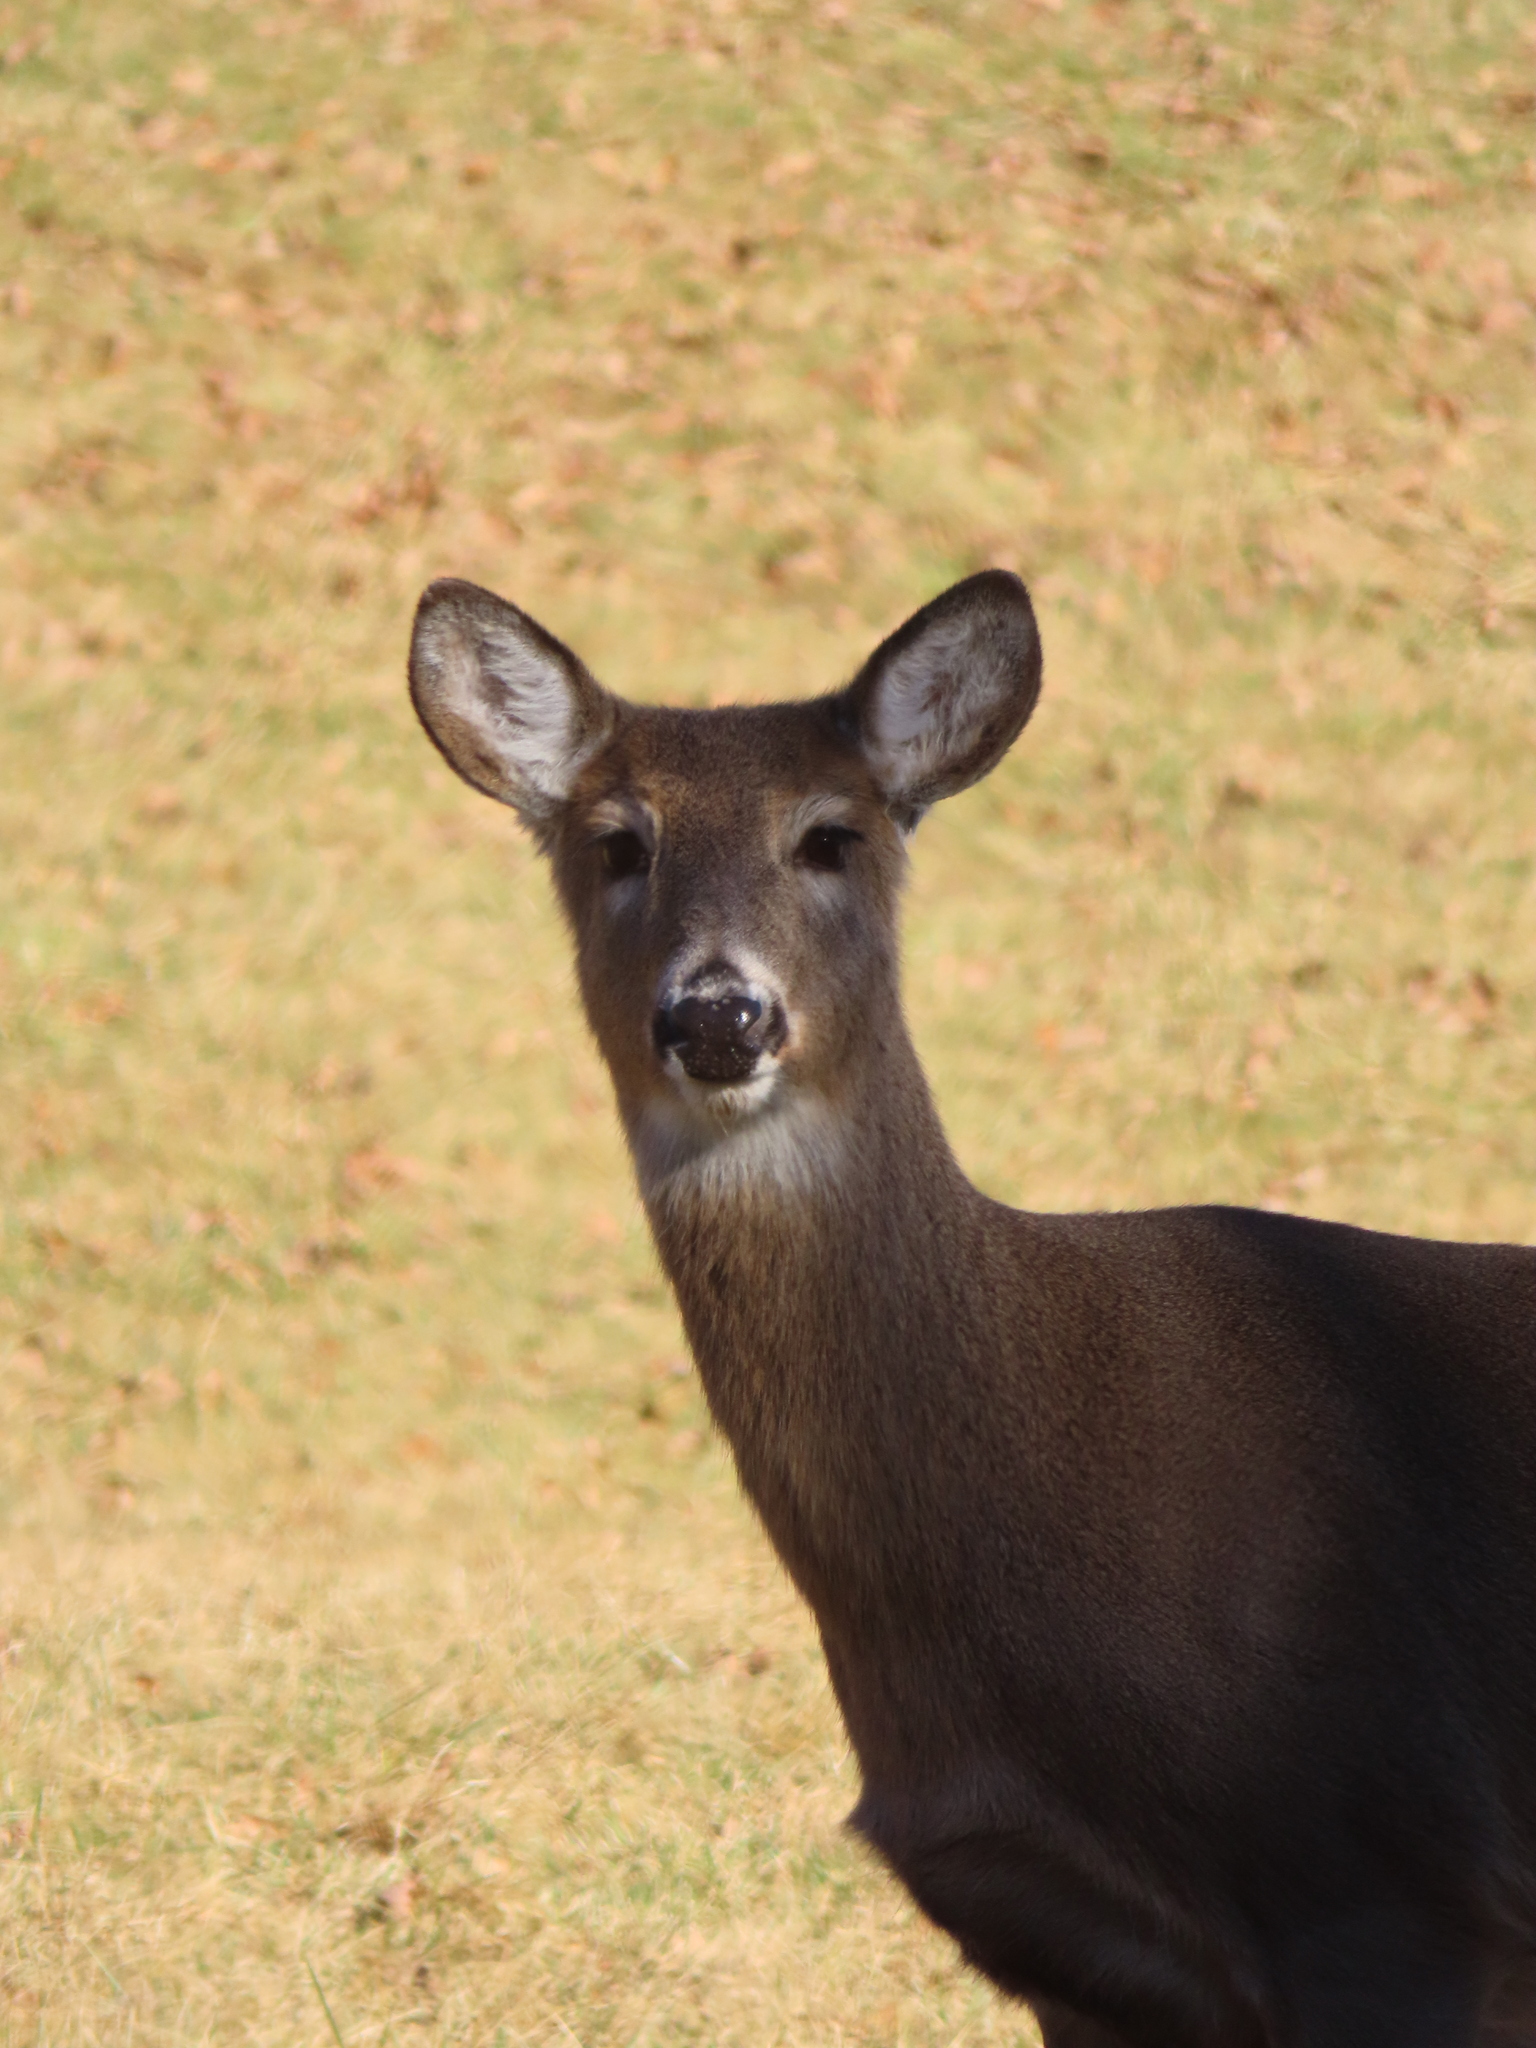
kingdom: Animalia
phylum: Chordata
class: Mammalia
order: Artiodactyla
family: Cervidae
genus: Odocoileus
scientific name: Odocoileus virginianus
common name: White-tailed deer
